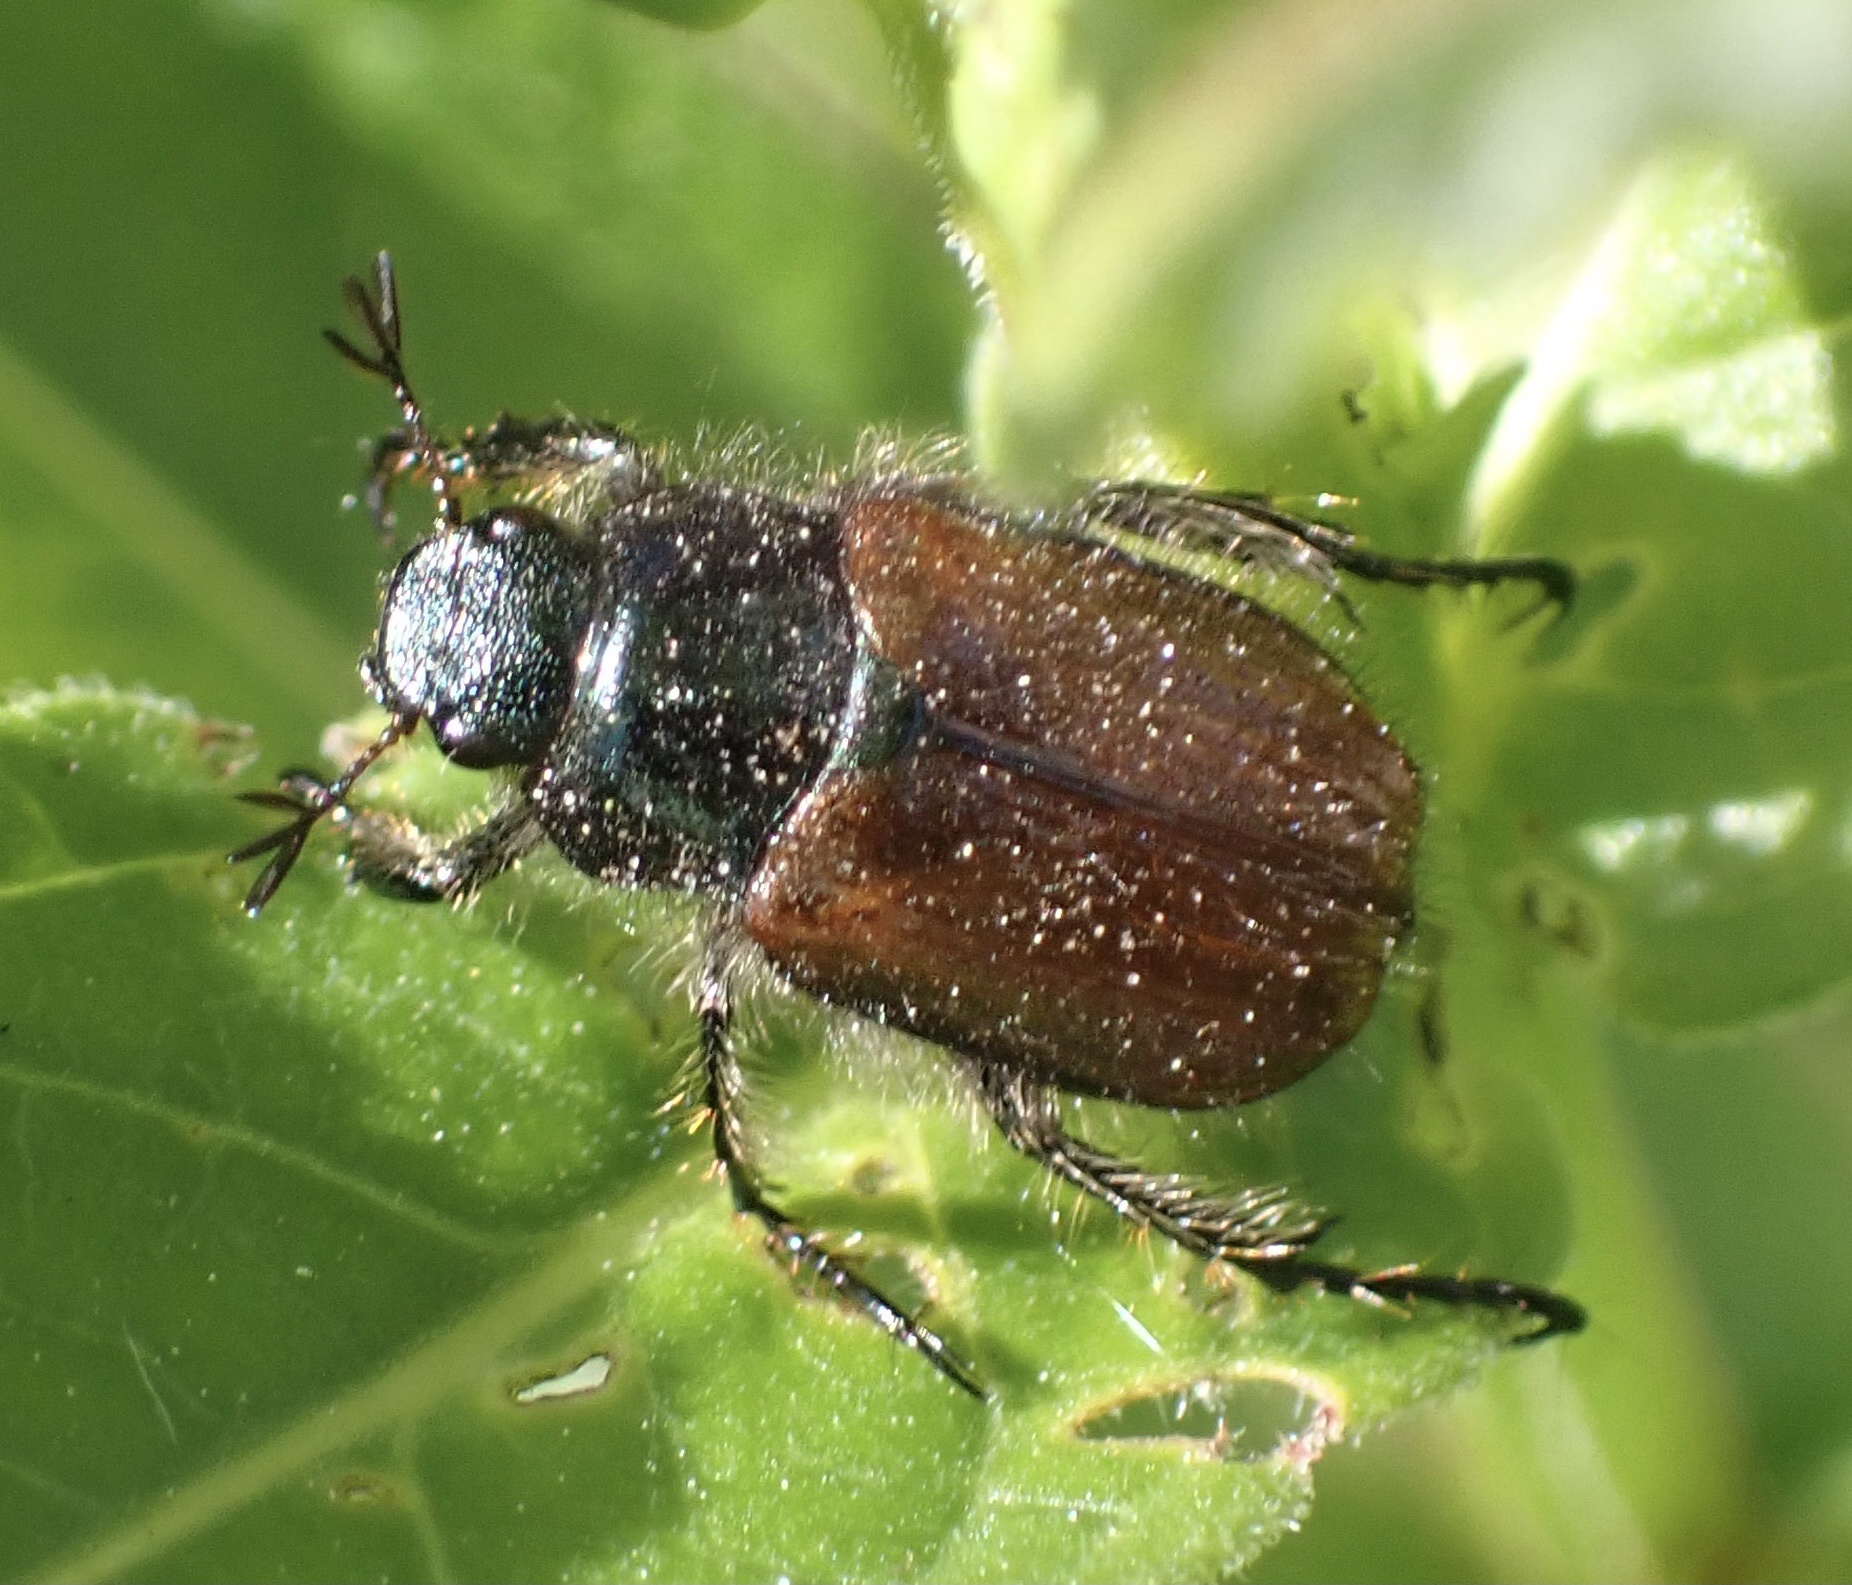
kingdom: Animalia
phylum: Arthropoda
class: Insecta
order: Coleoptera
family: Scarabaeidae
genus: Phyllopertha
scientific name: Phyllopertha horticola
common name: Garden chafer
